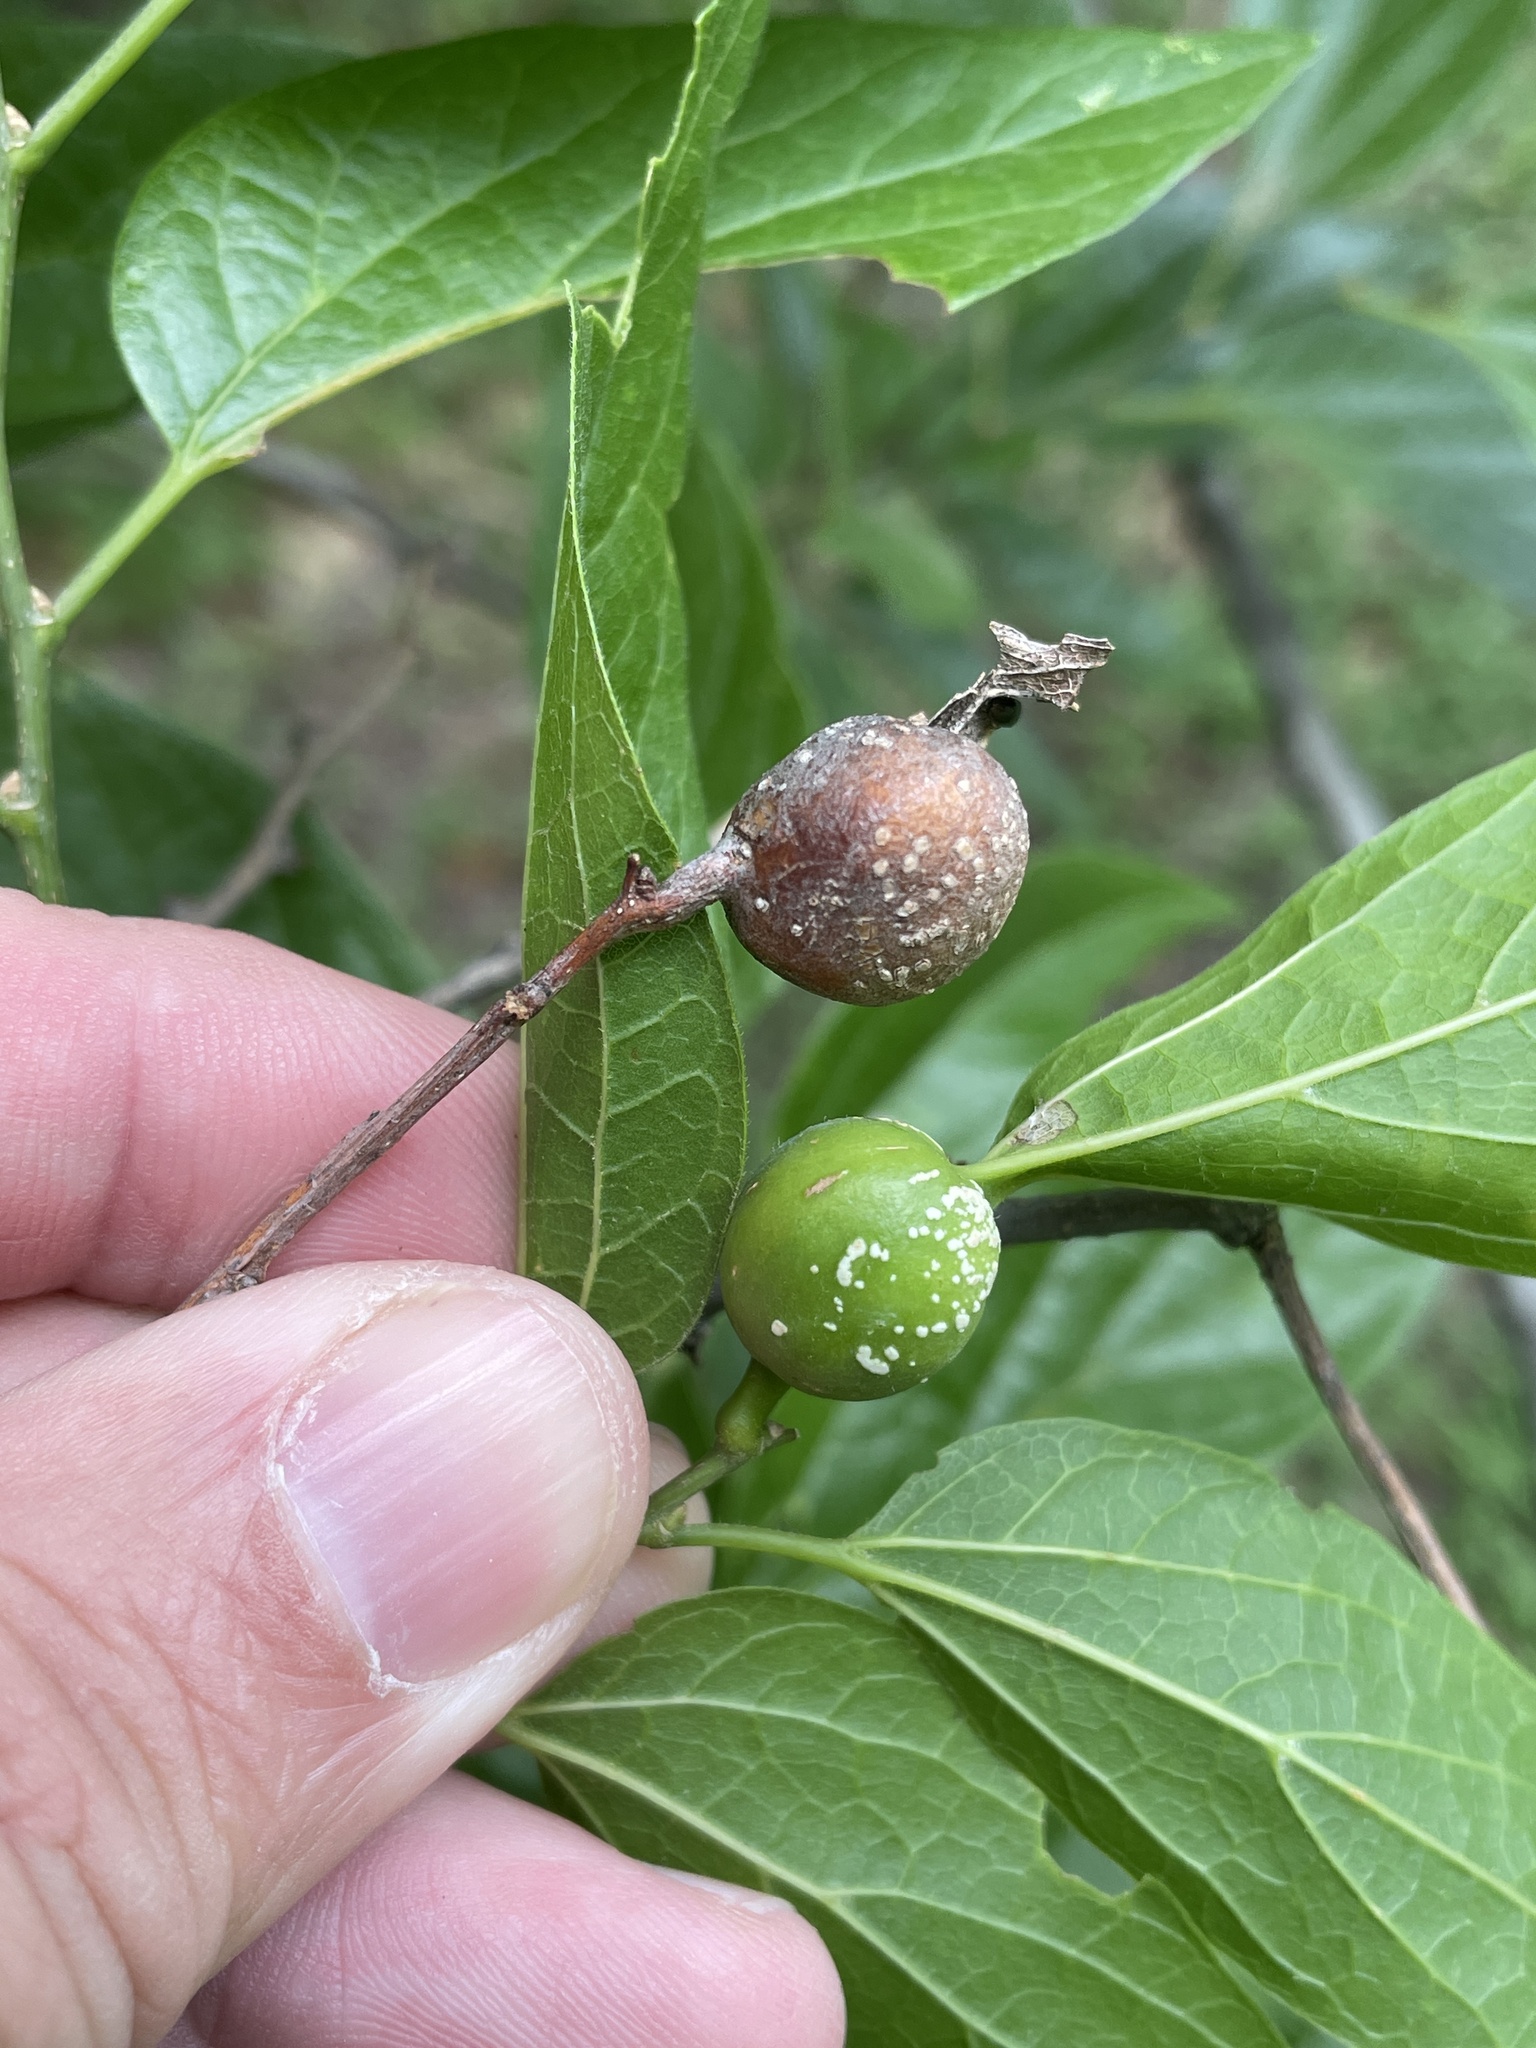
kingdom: Animalia
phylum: Arthropoda
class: Insecta
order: Hemiptera
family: Aphalaridae
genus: Pachypsylla
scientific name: Pachypsylla venusta
